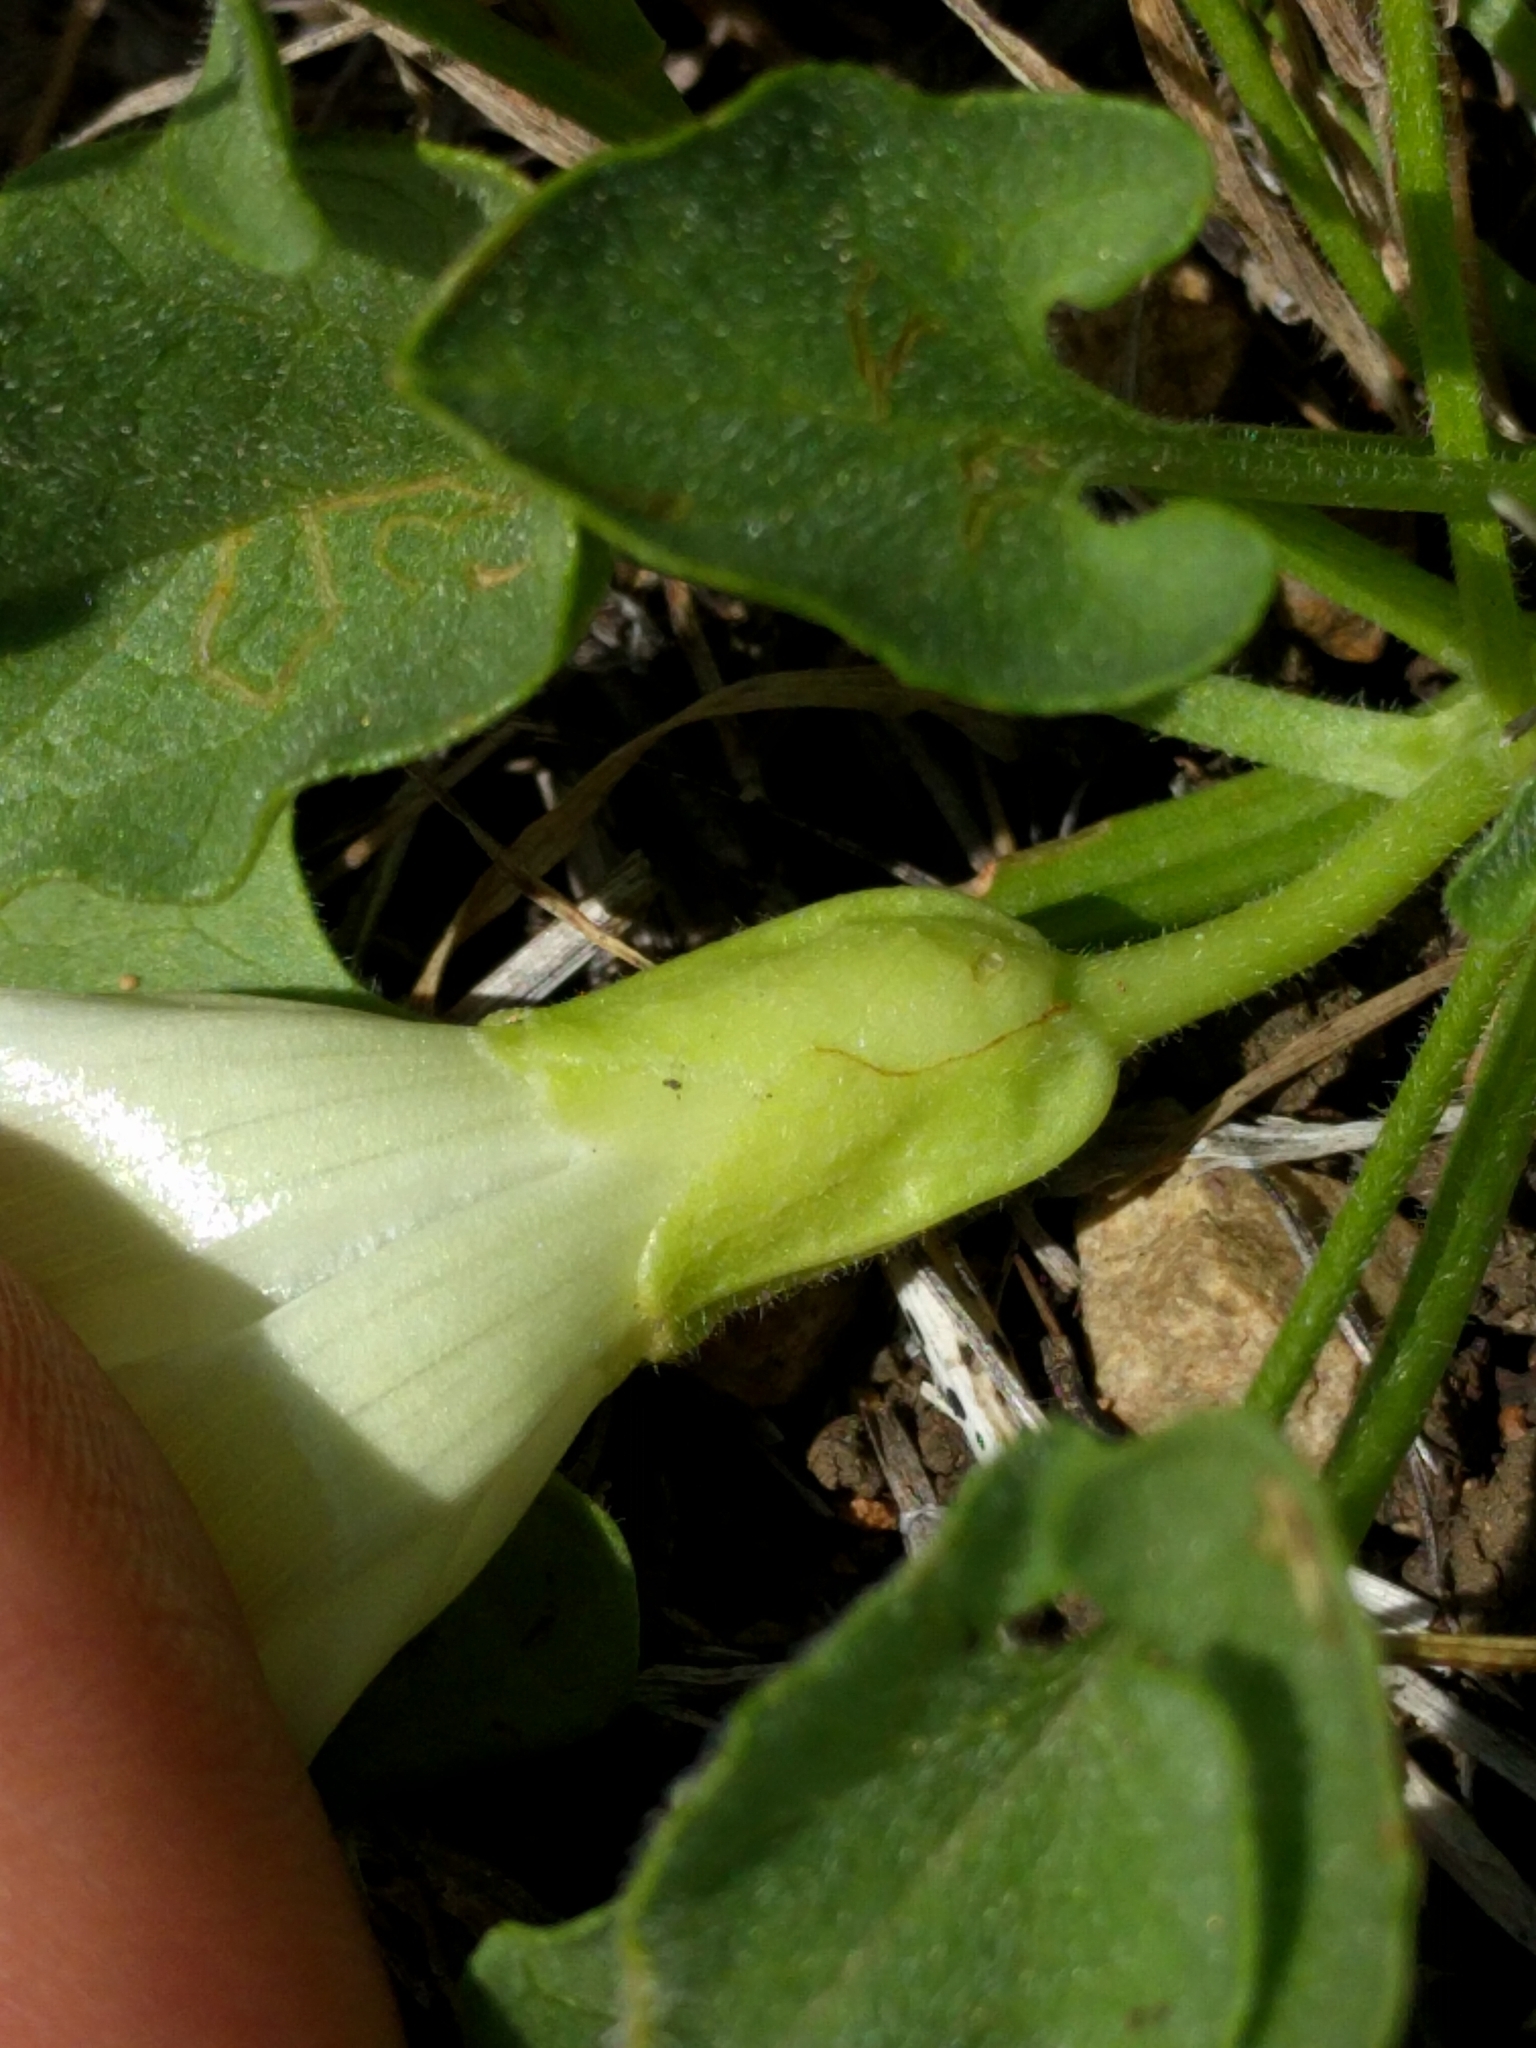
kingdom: Plantae
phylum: Tracheophyta
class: Magnoliopsida
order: Solanales
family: Convolvulaceae
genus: Calystegia
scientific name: Calystegia subacaulis
